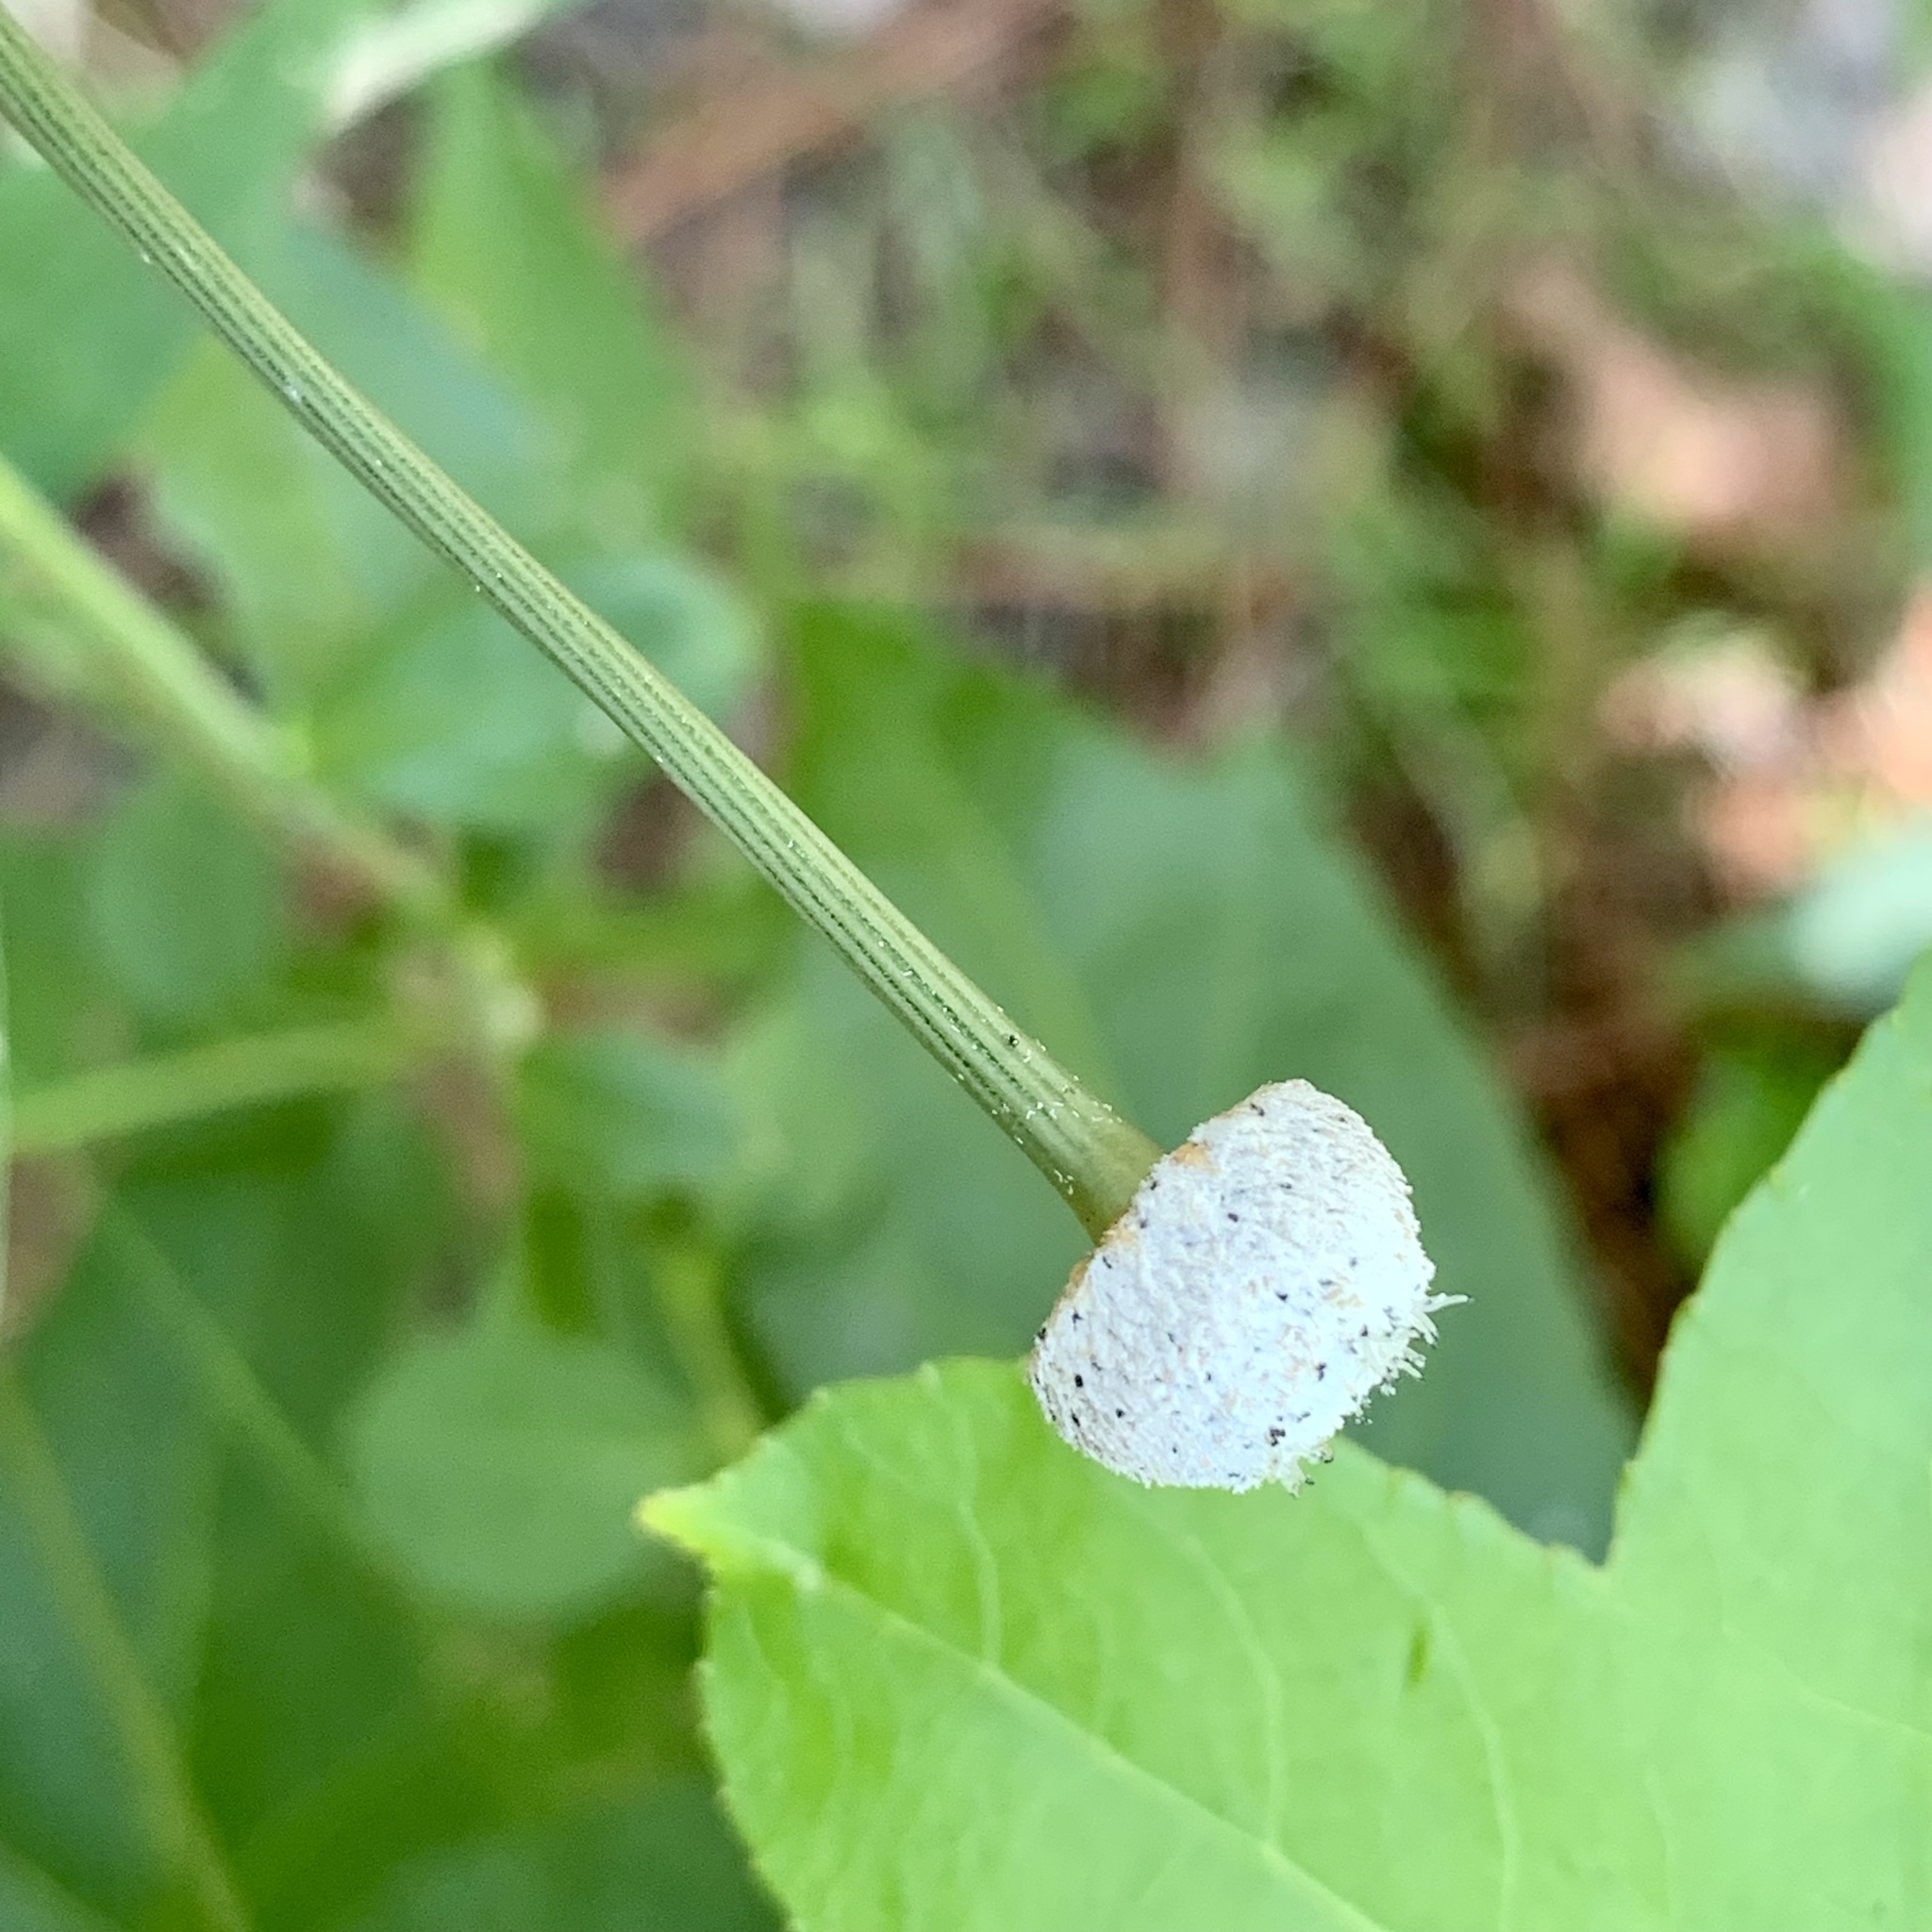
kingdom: Plantae
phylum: Tracheophyta
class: Liliopsida
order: Poales
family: Eriocaulaceae
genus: Eriocaulon
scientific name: Eriocaulon decangulare
